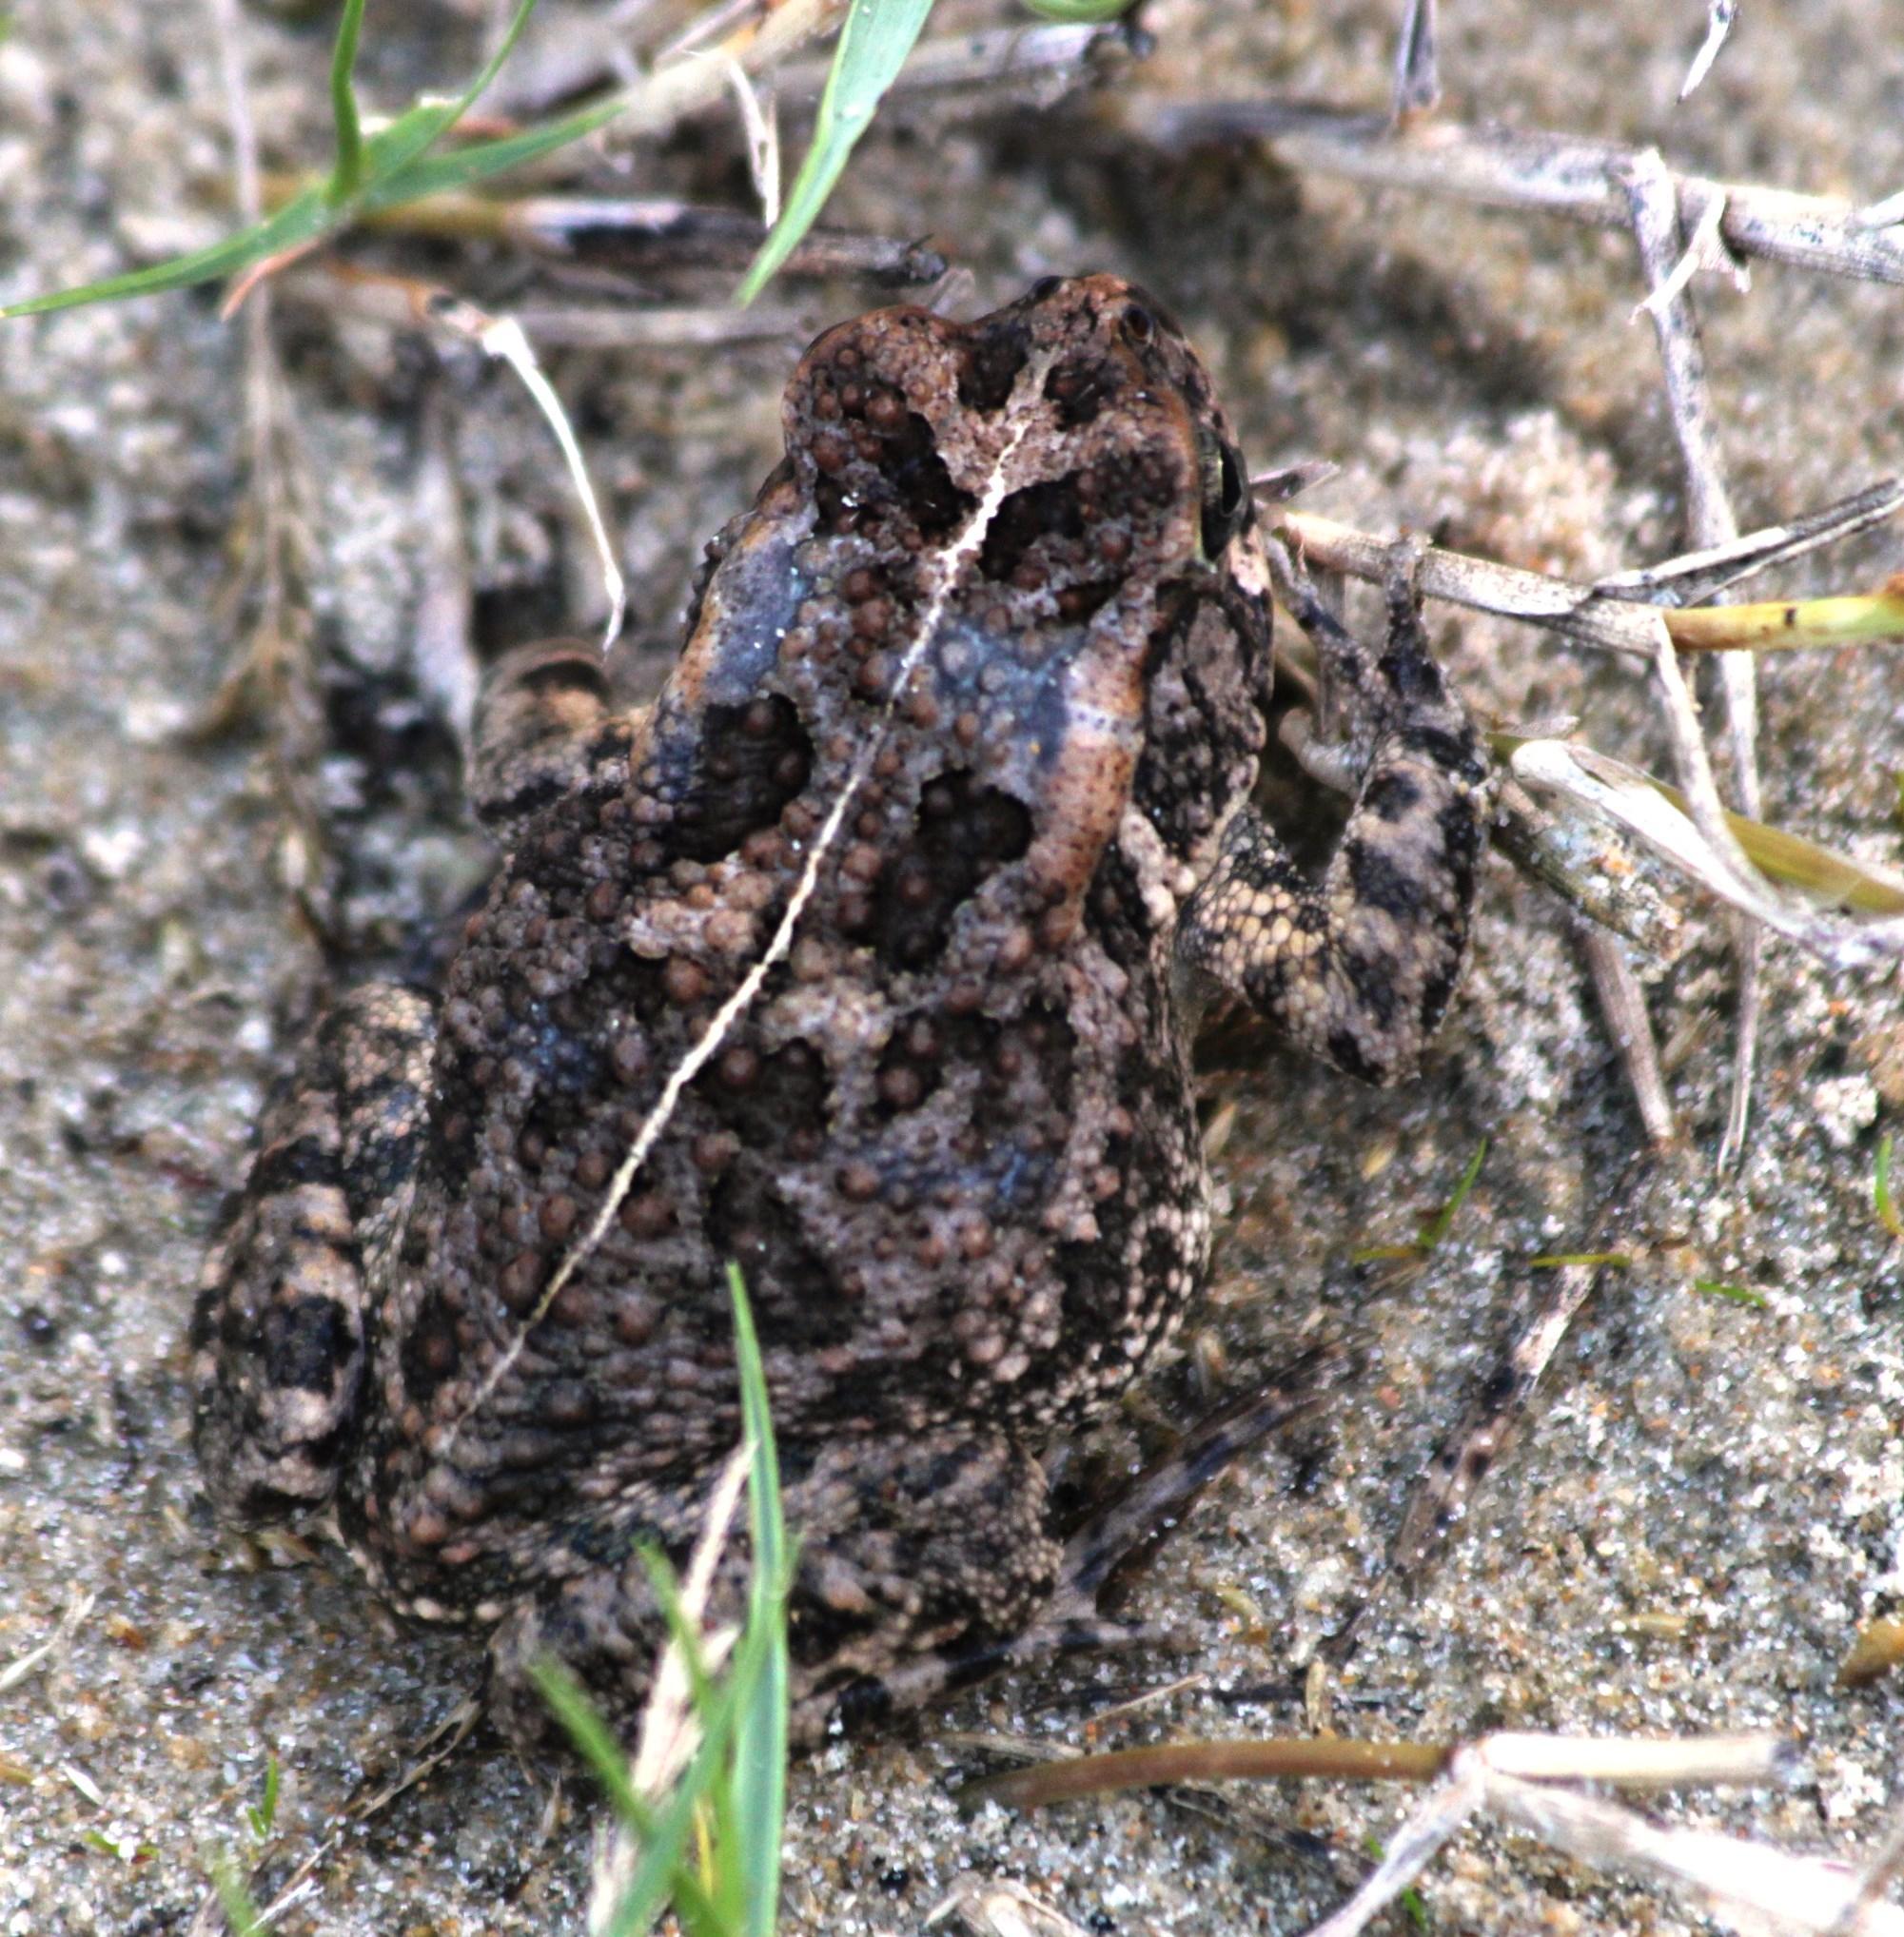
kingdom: Animalia
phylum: Chordata
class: Amphibia
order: Anura
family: Bufonidae
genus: Sclerophrys
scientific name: Sclerophrys gutturalis
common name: African common toad
